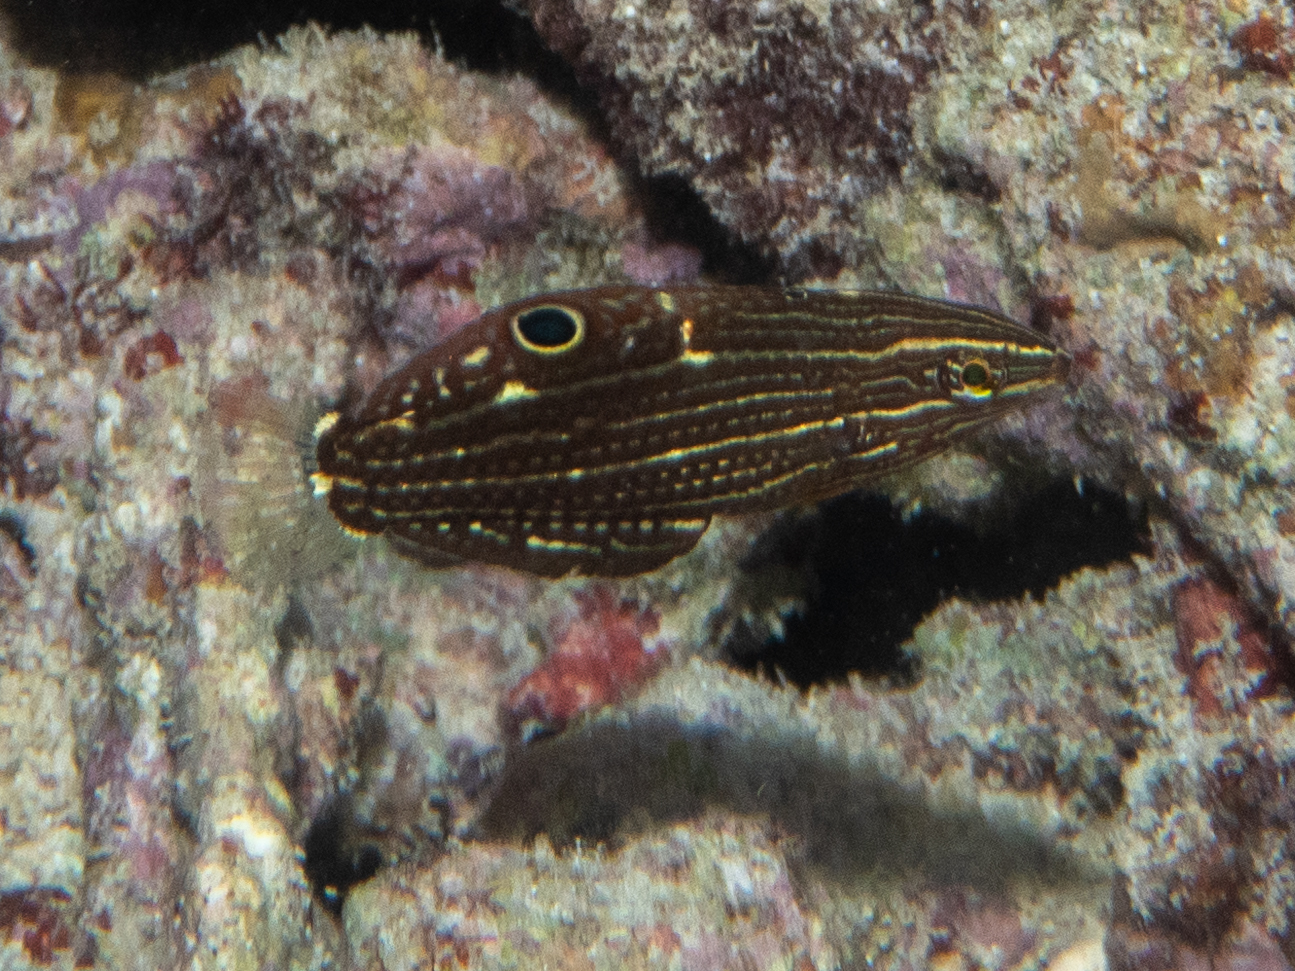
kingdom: Animalia
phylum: Chordata
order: Perciformes
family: Labridae
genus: Halichoeres
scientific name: Halichoeres marginatus
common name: Dusky wrasse
